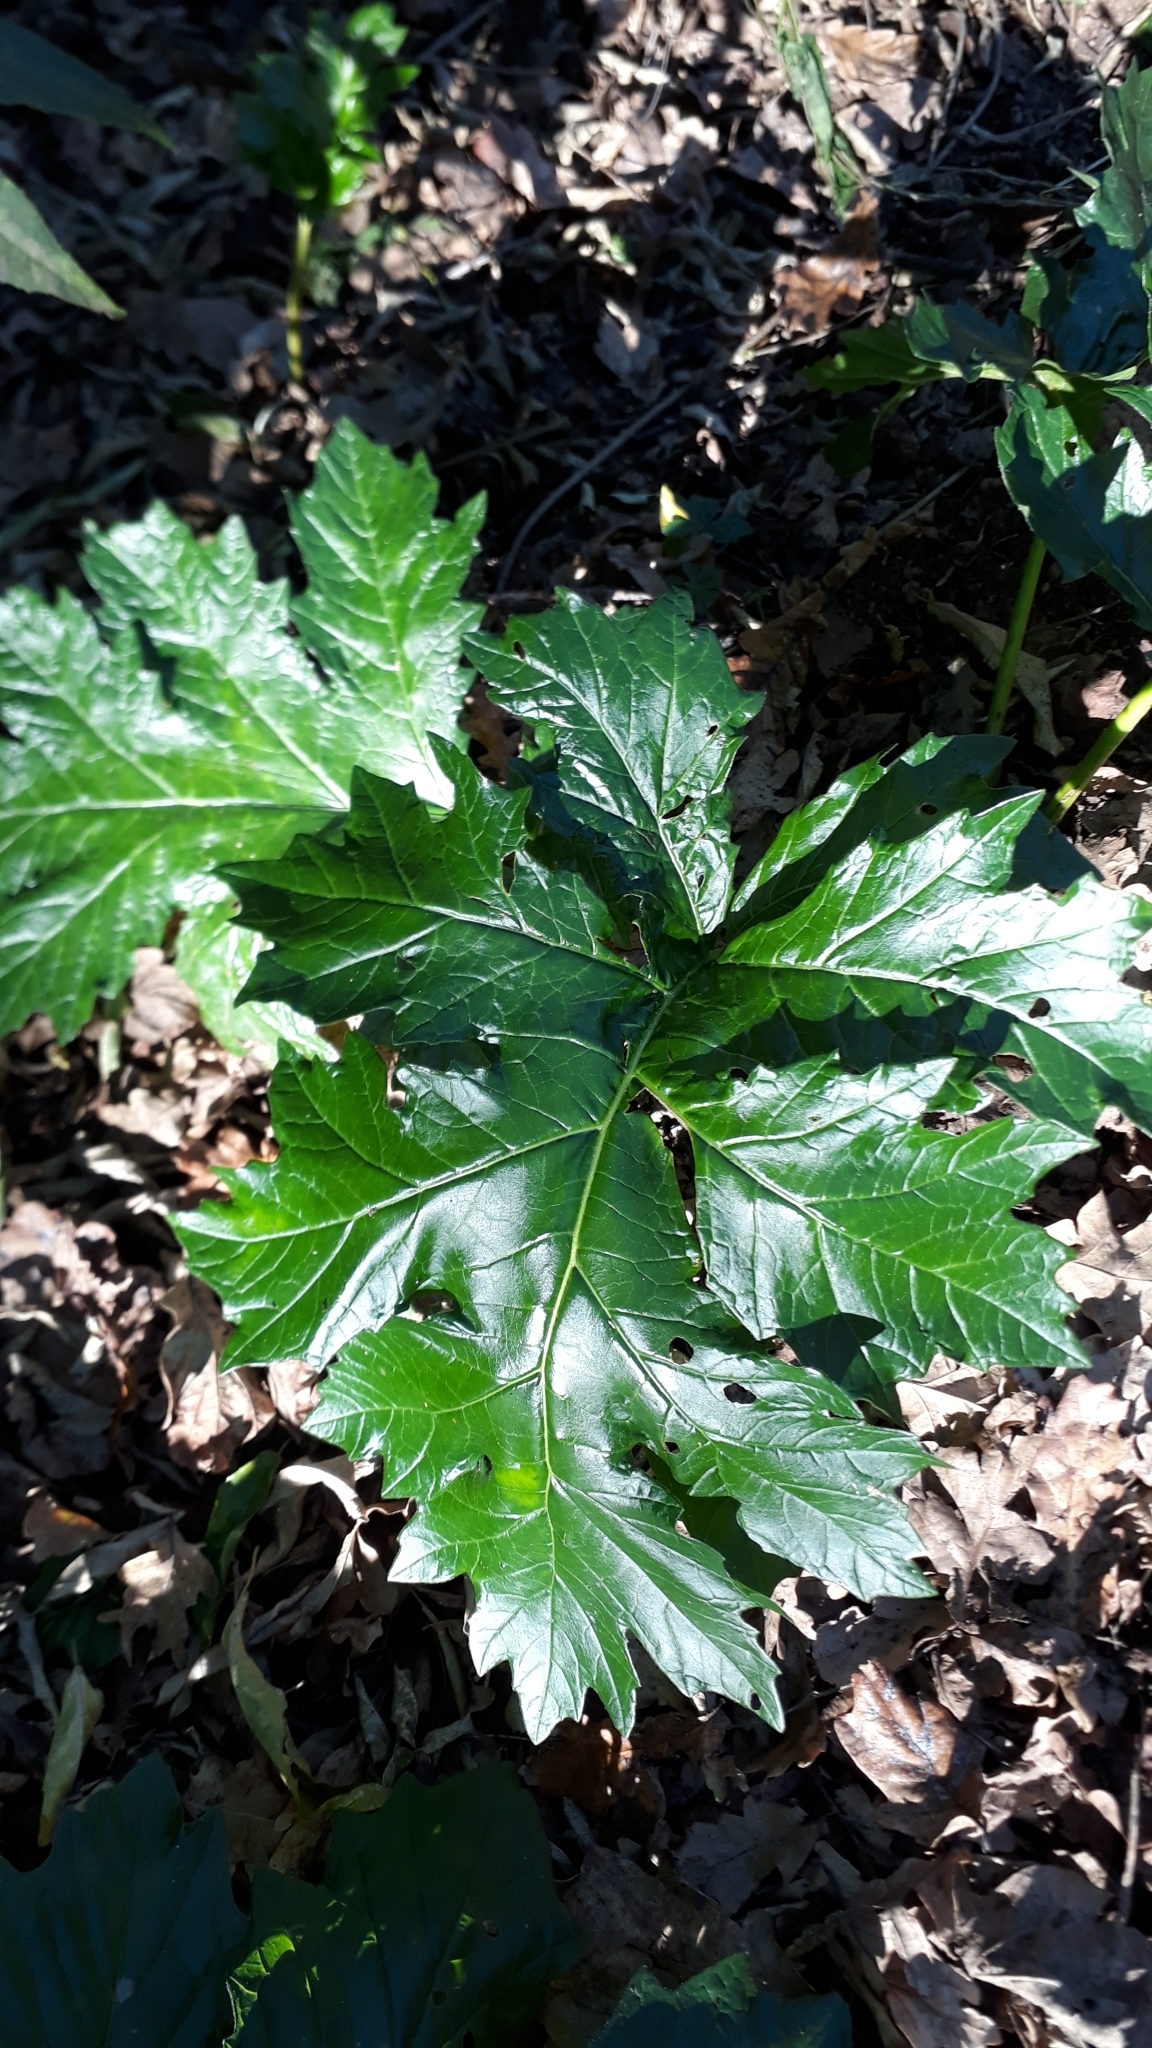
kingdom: Plantae
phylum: Tracheophyta
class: Magnoliopsida
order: Lamiales
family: Acanthaceae
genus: Acanthus
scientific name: Acanthus mollis
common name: Bear's-breech
